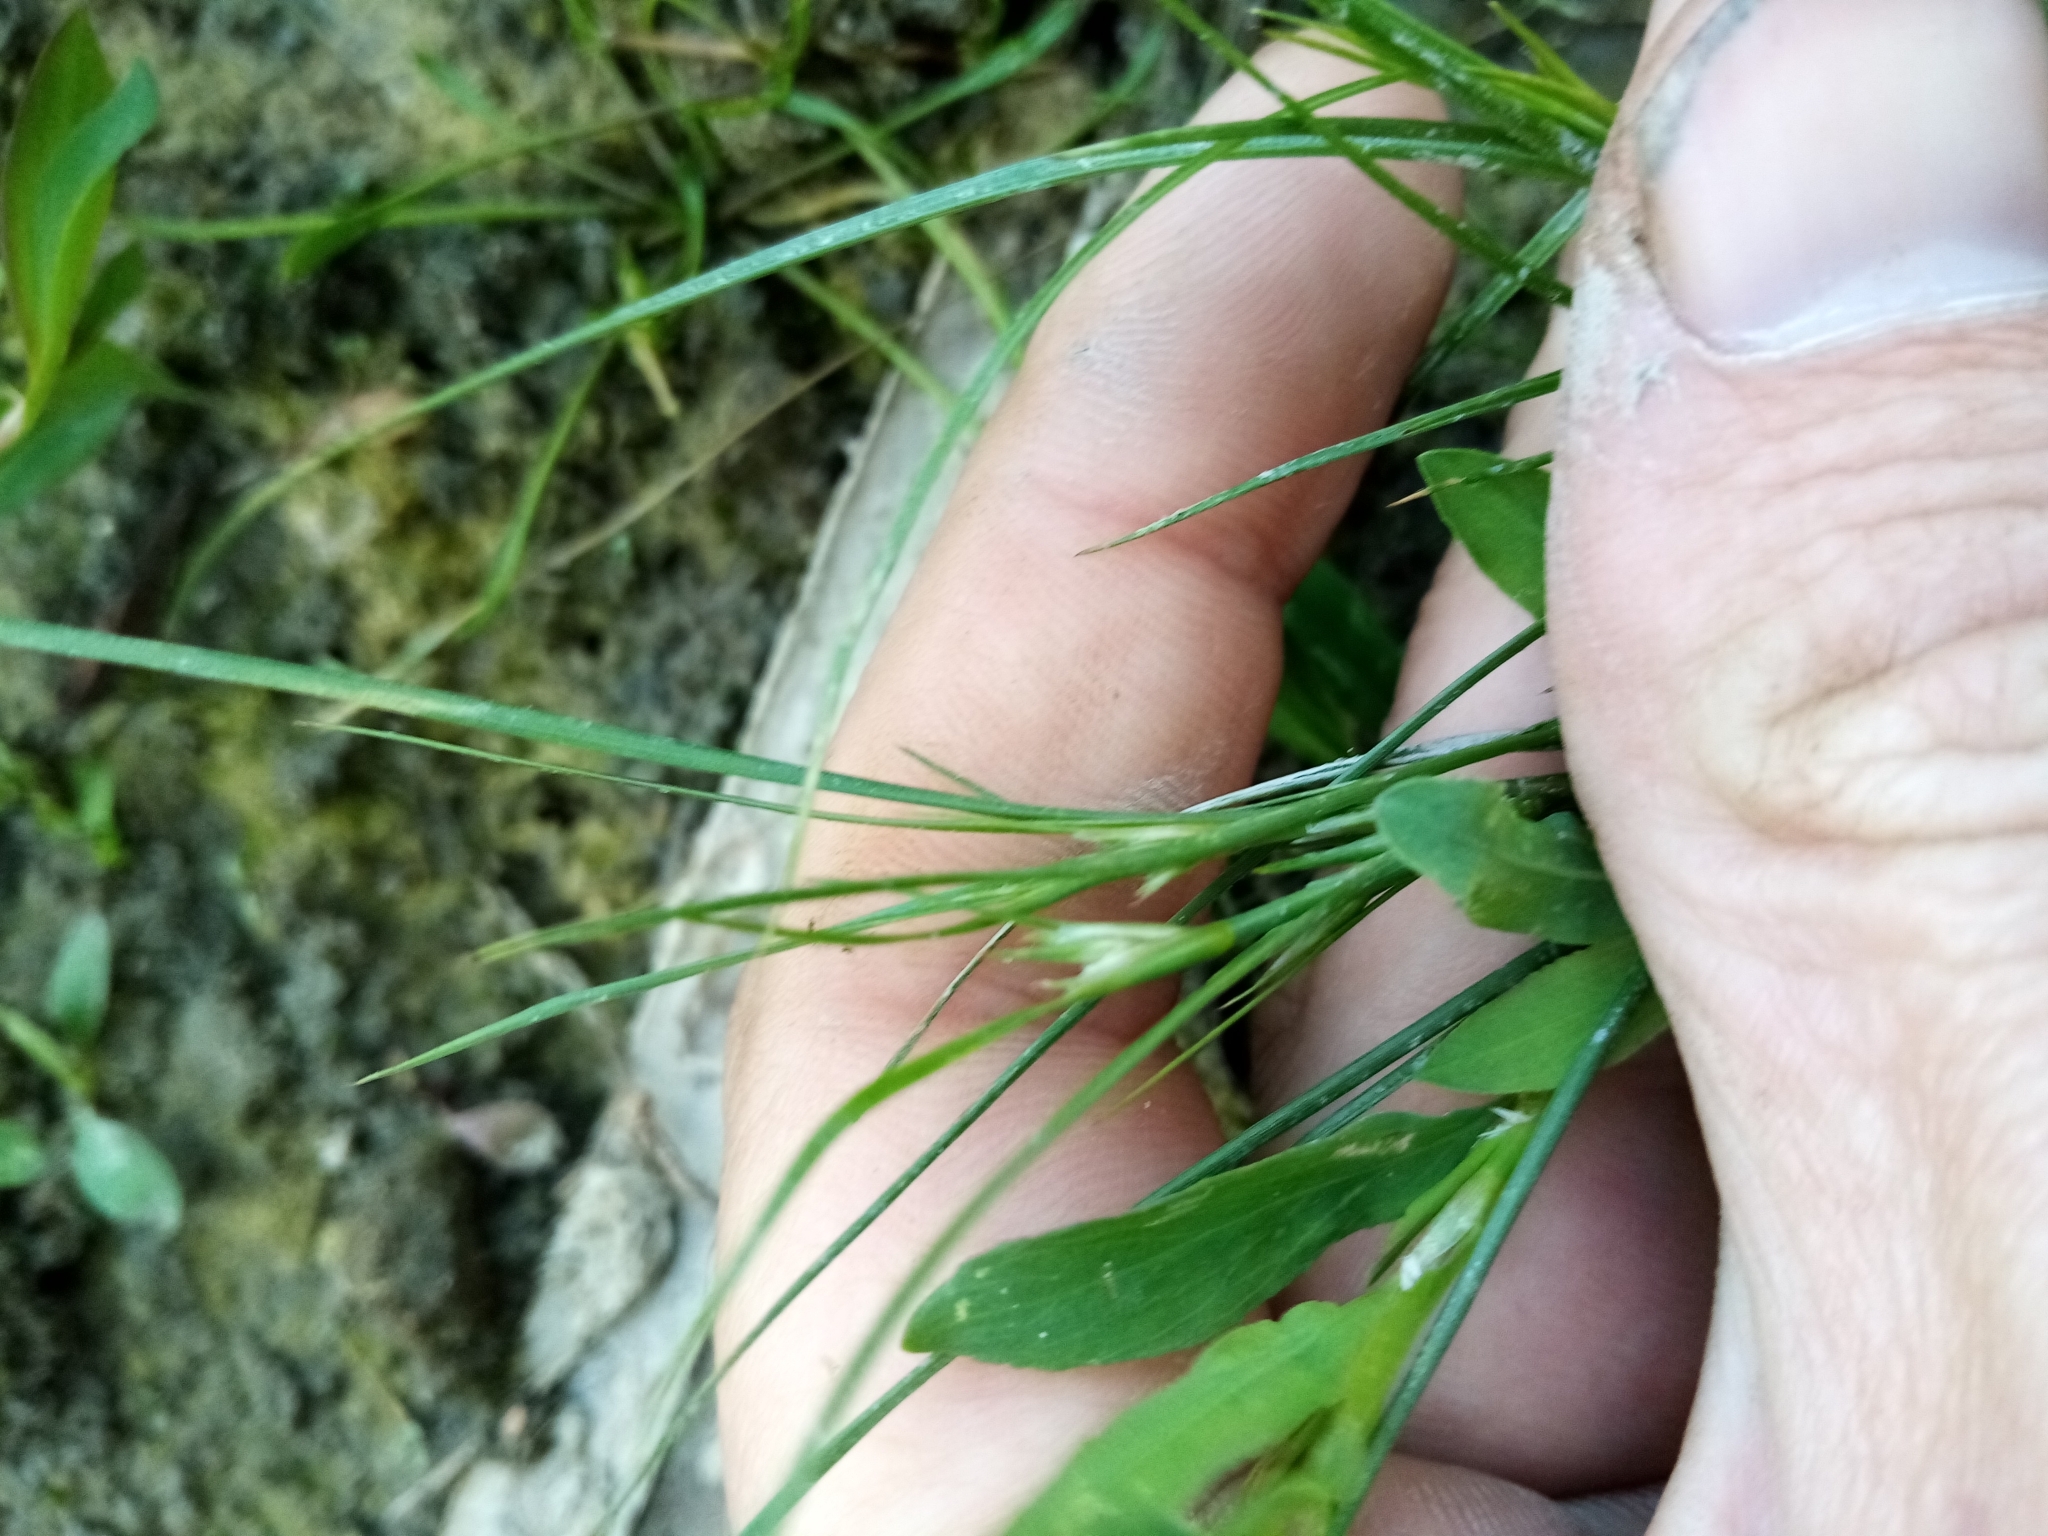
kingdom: Plantae
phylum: Tracheophyta
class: Liliopsida
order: Poales
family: Juncaceae
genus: Juncus
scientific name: Juncus tenuis
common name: Slender rush
